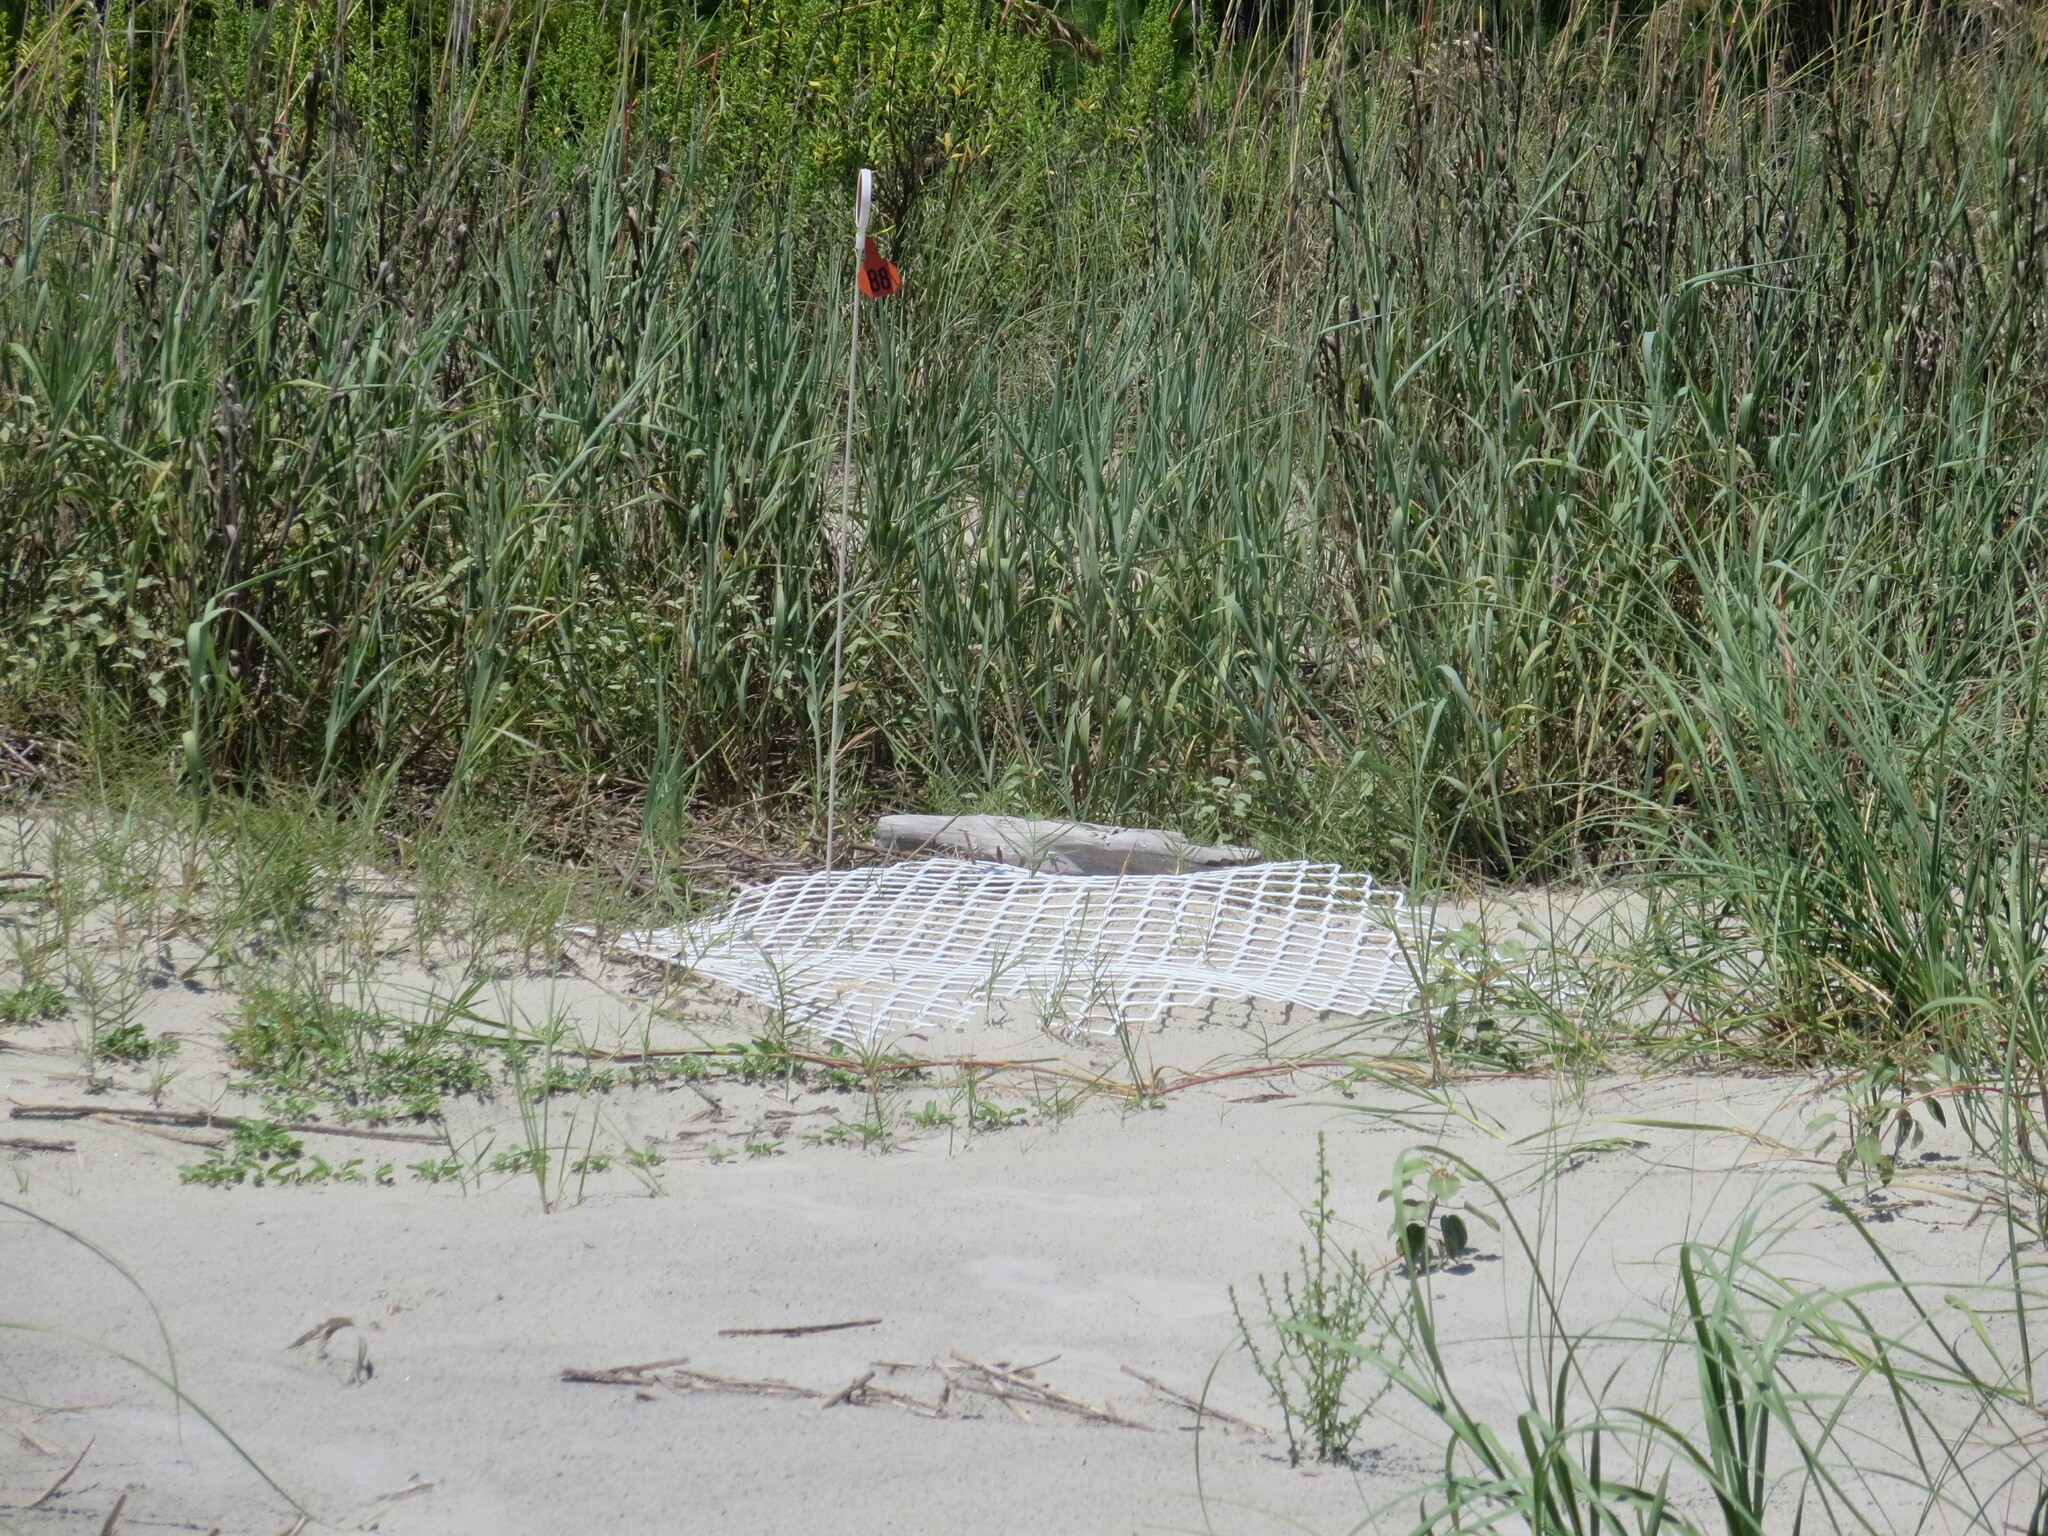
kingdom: Animalia
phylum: Chordata
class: Testudines
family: Cheloniidae
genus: Caretta
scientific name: Caretta caretta
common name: Loggerhead sea turtle
